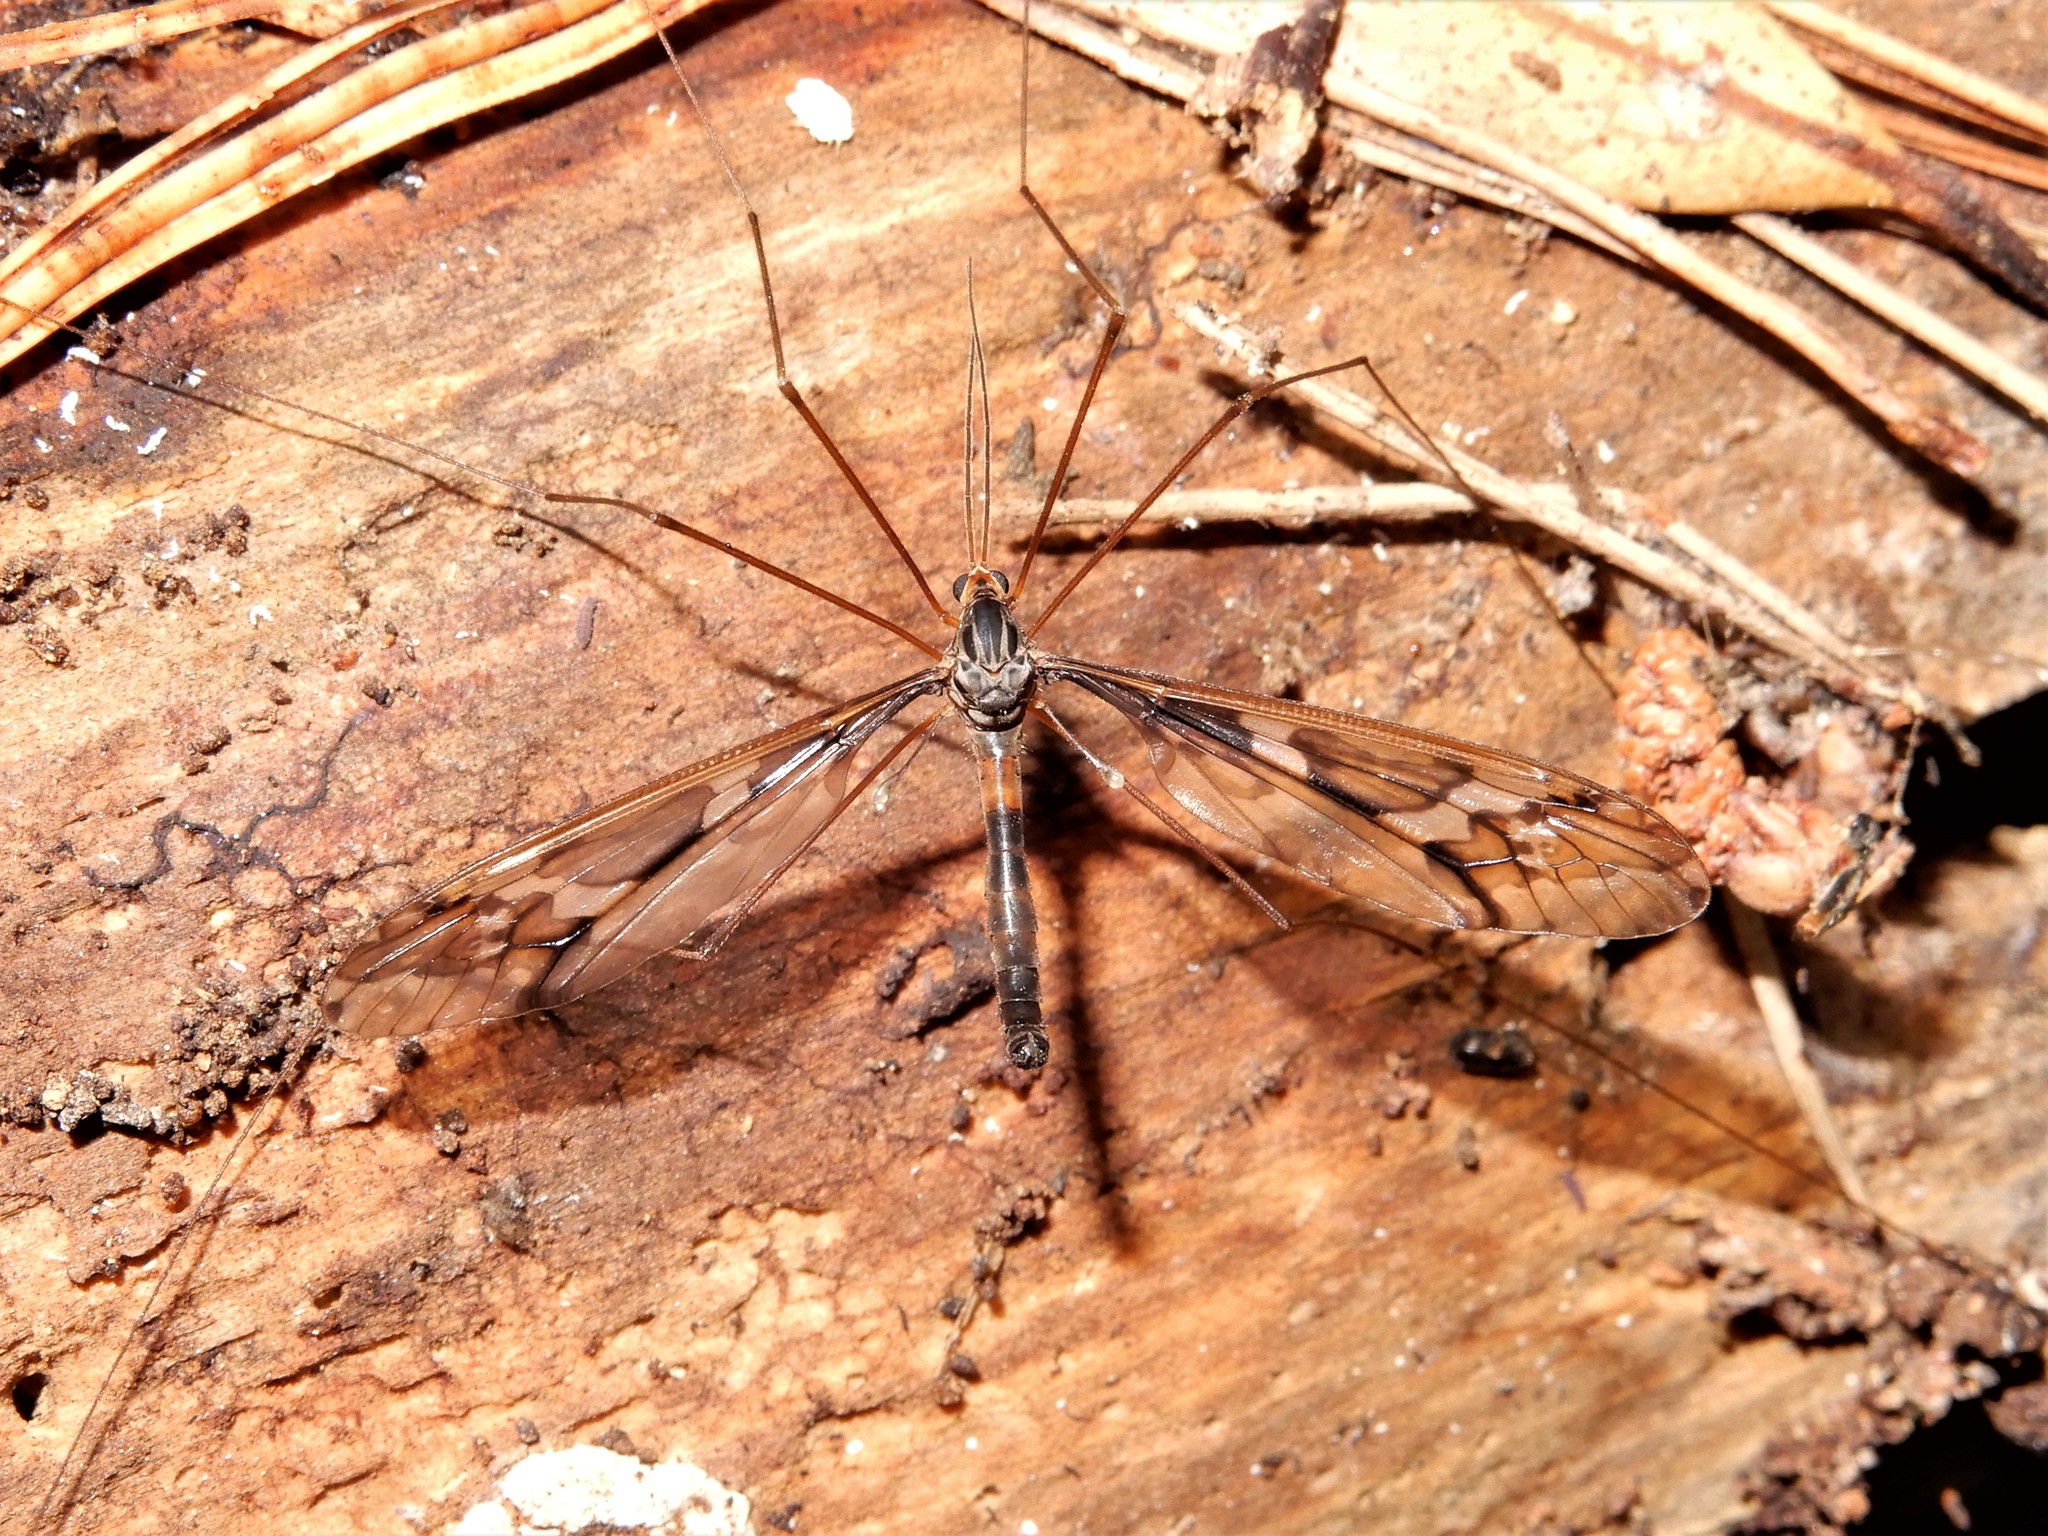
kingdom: Animalia
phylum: Arthropoda
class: Insecta
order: Diptera
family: Tipulidae
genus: Leptotarsus
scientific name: Leptotarsus binotatus
